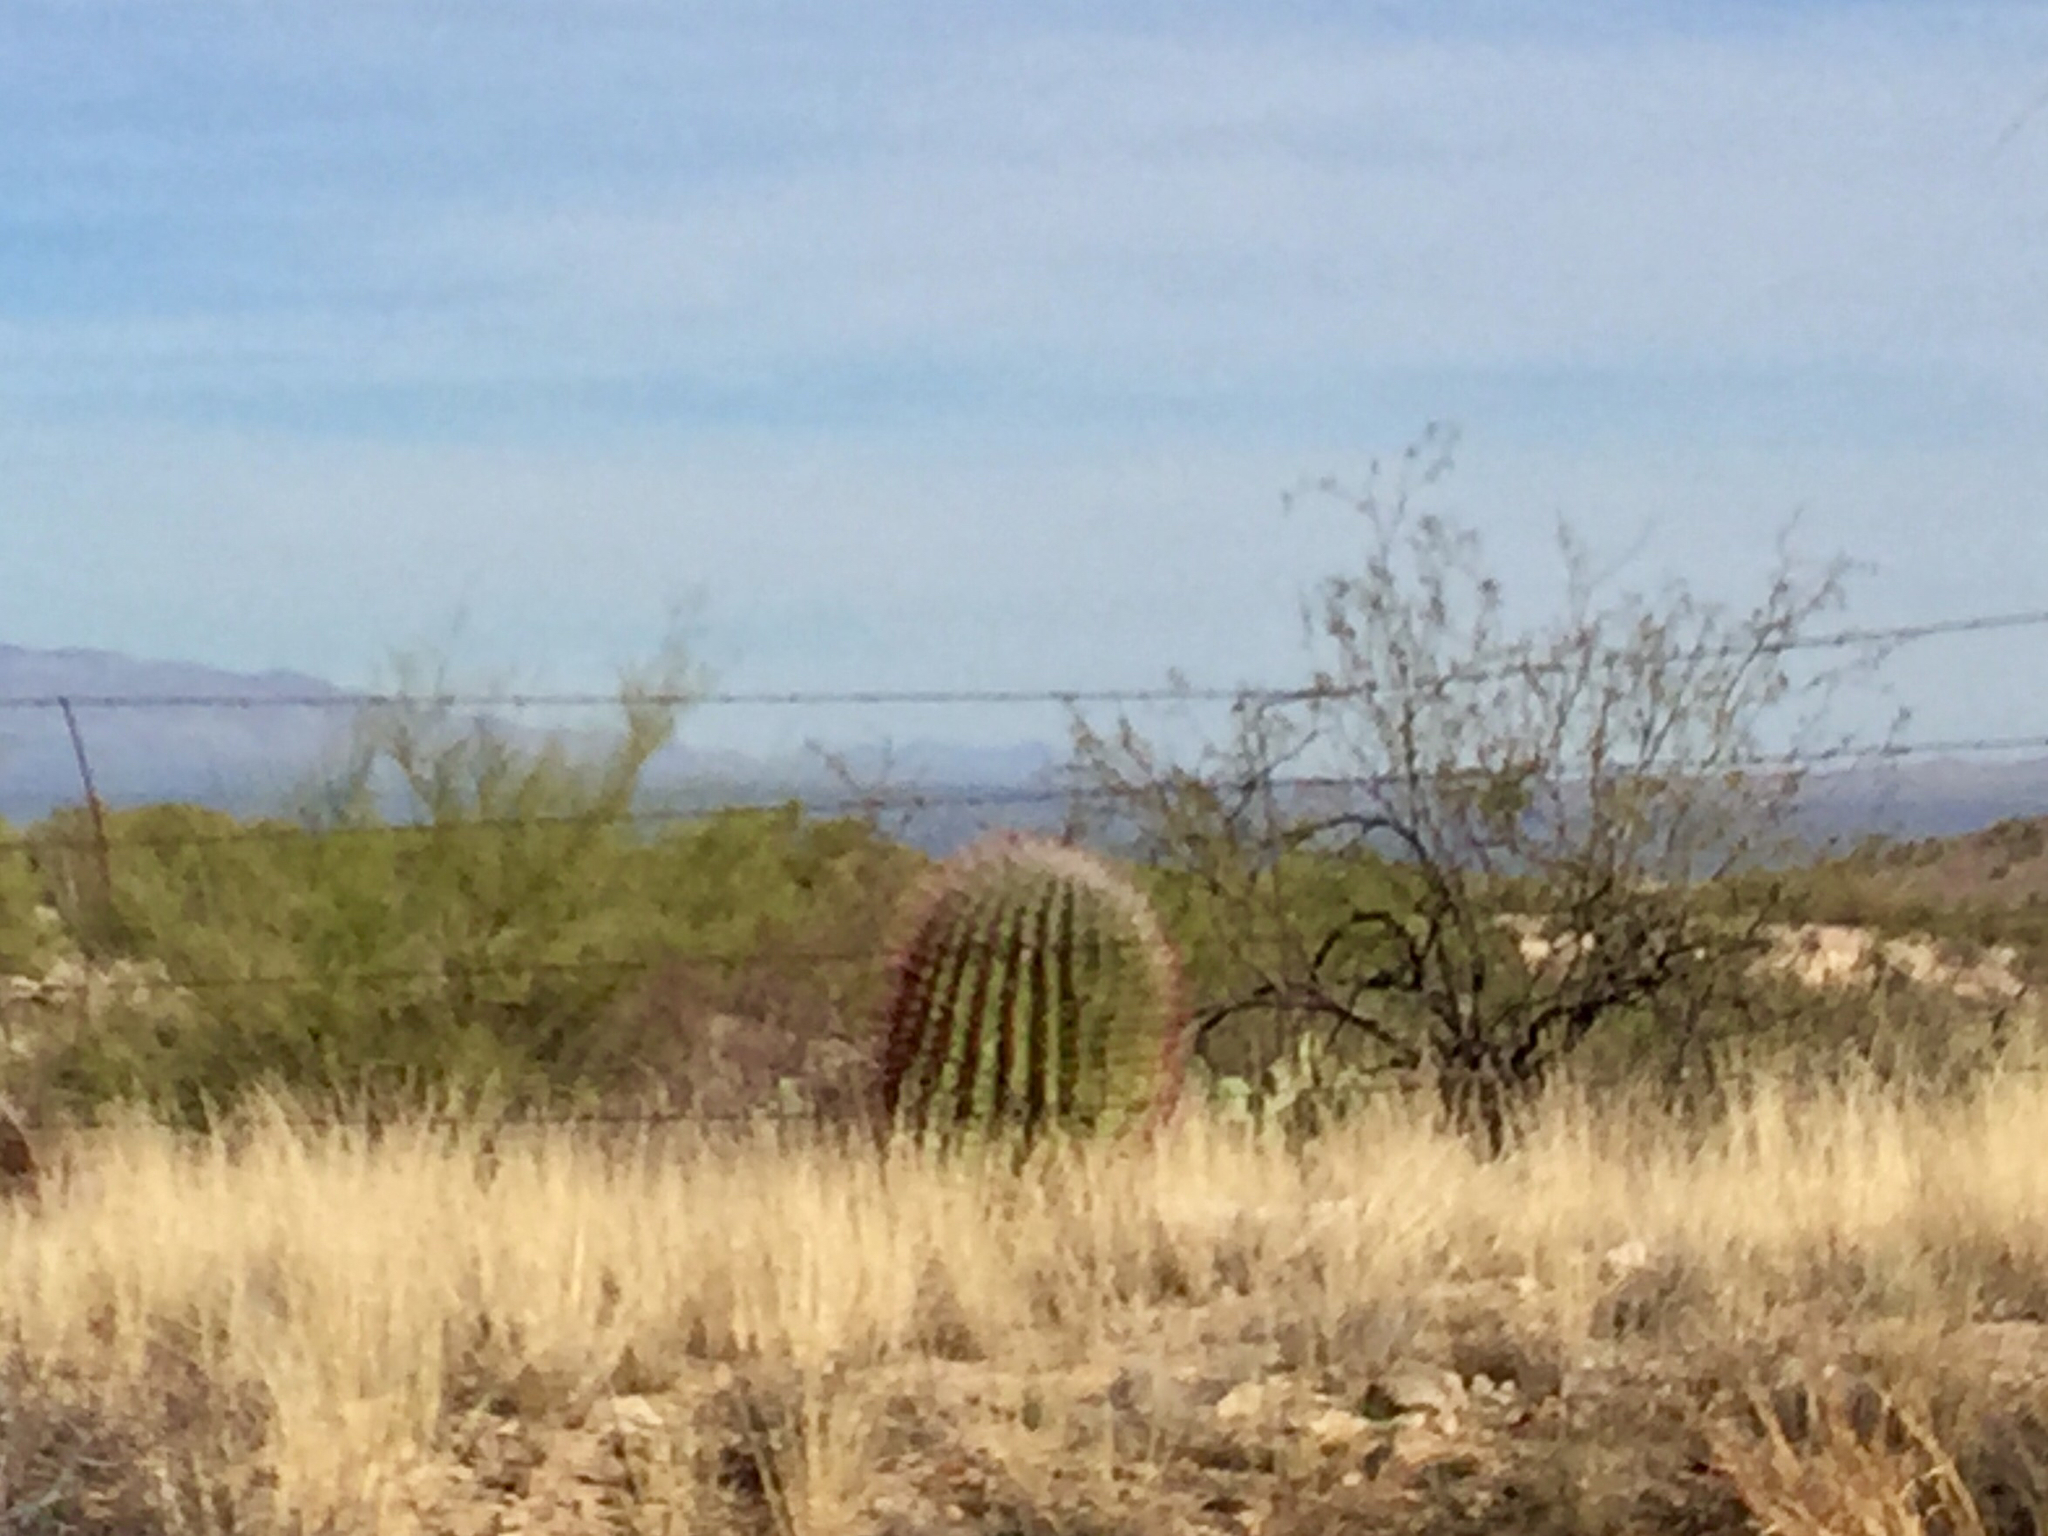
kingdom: Plantae
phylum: Tracheophyta
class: Magnoliopsida
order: Caryophyllales
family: Cactaceae
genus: Ferocactus
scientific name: Ferocactus wislizeni
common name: Candy barrel cactus
